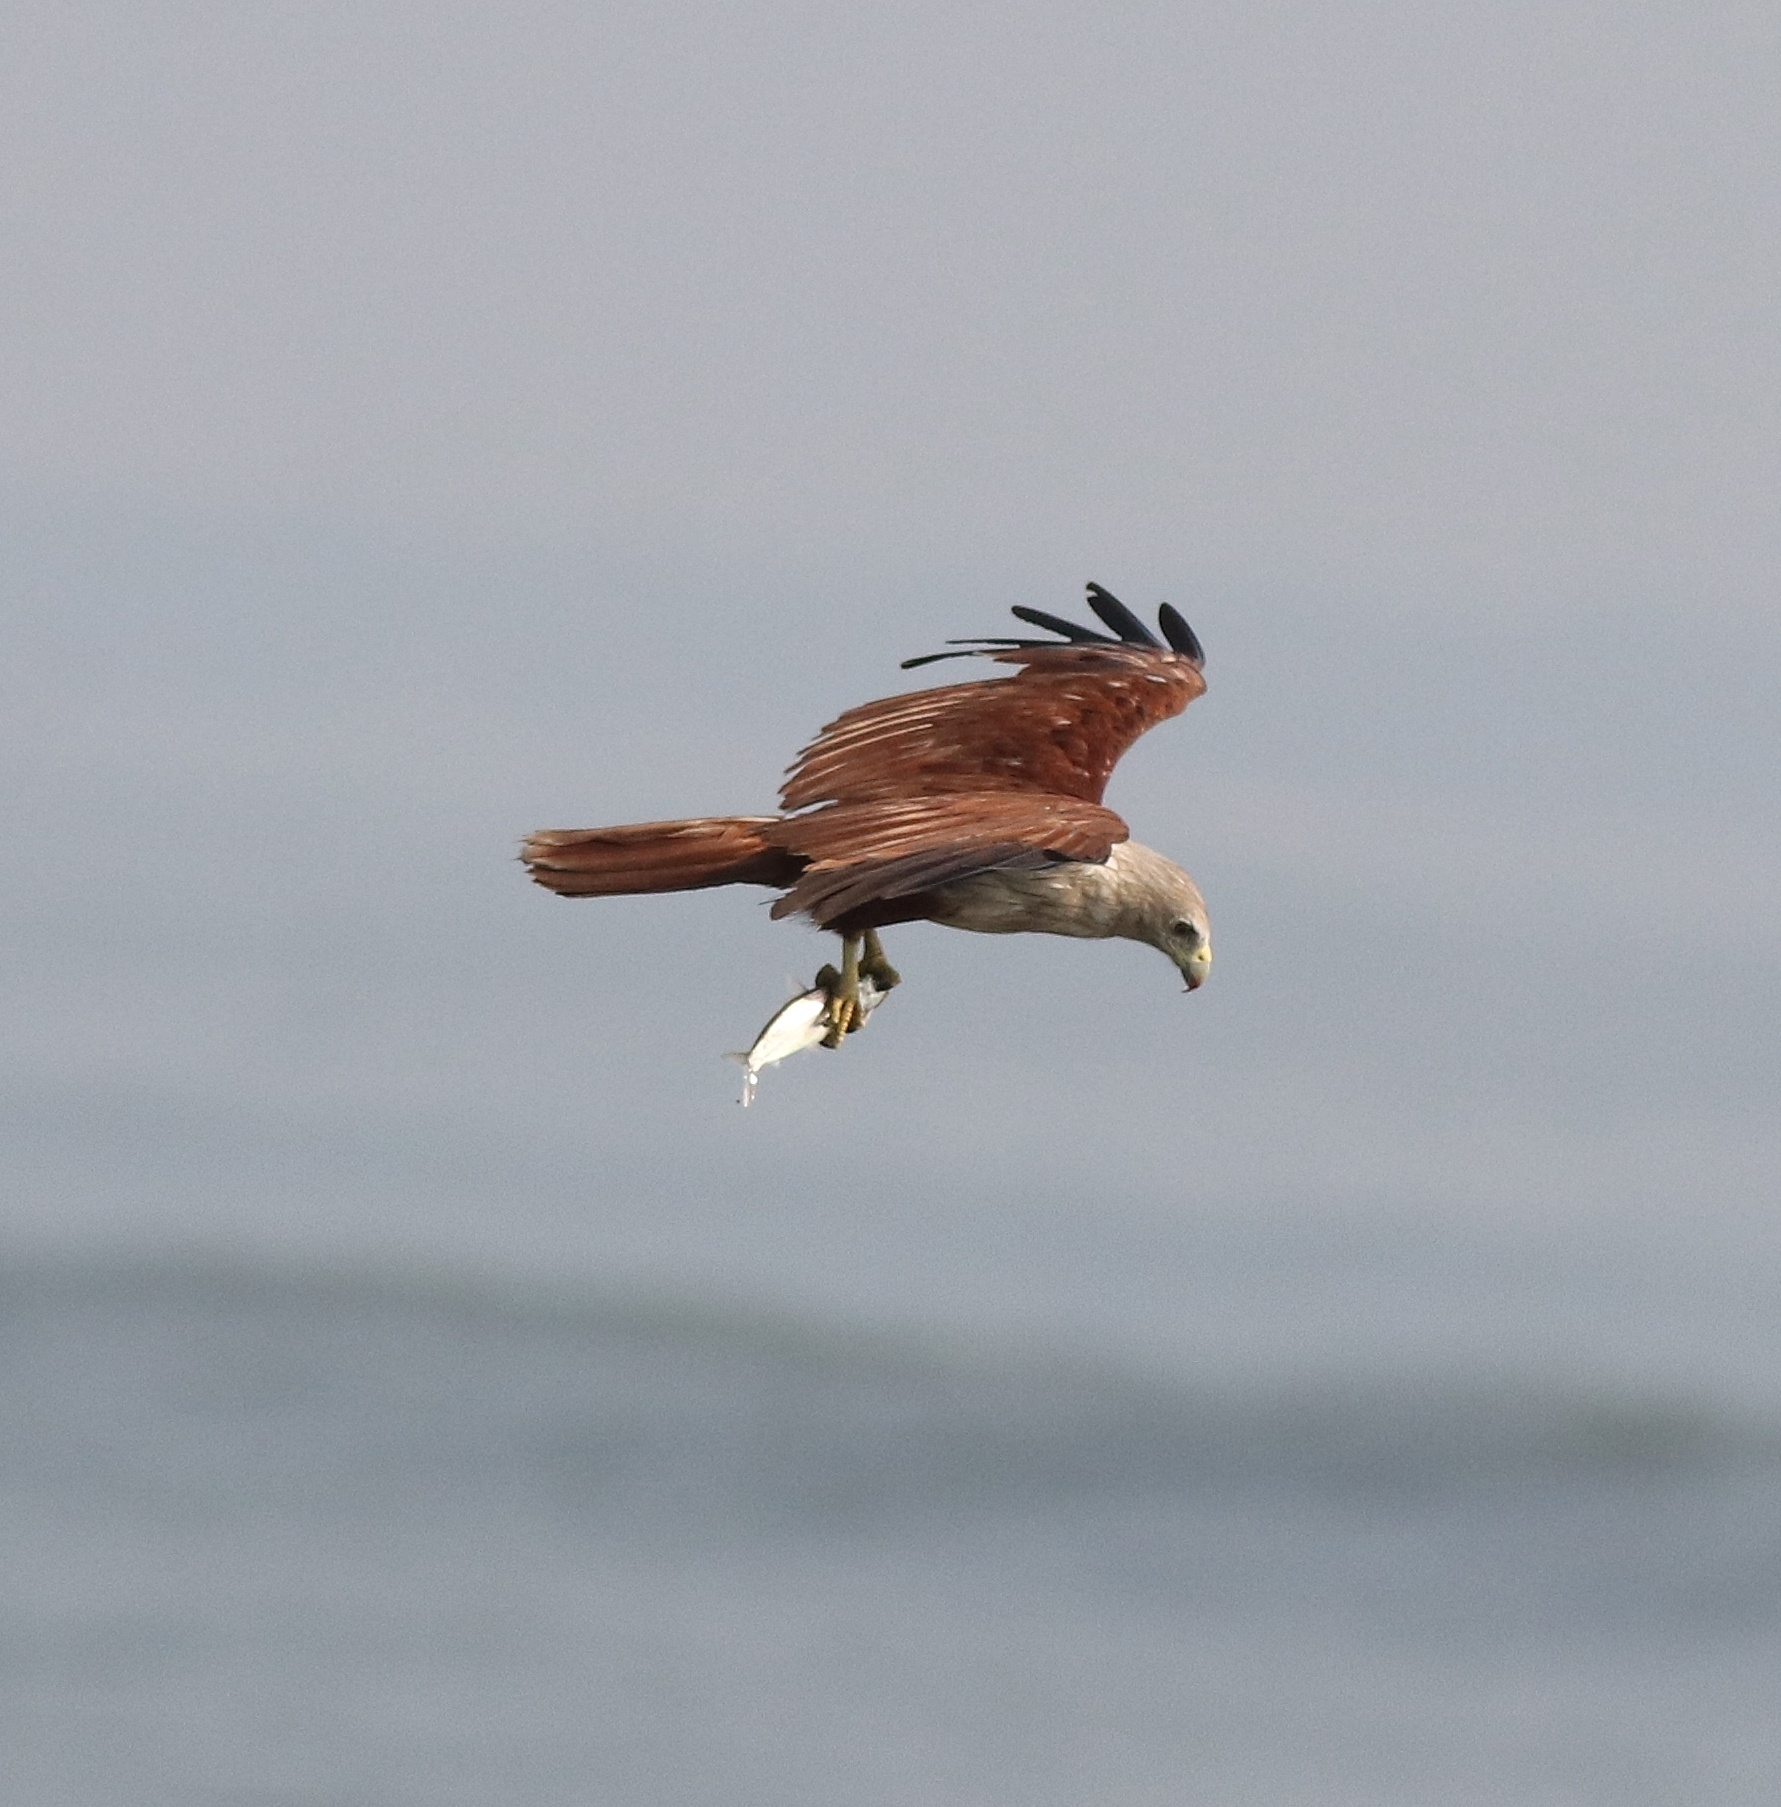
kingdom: Animalia
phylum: Chordata
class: Aves
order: Accipitriformes
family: Accipitridae
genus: Haliastur
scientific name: Haliastur indus
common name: Brahminy kite
